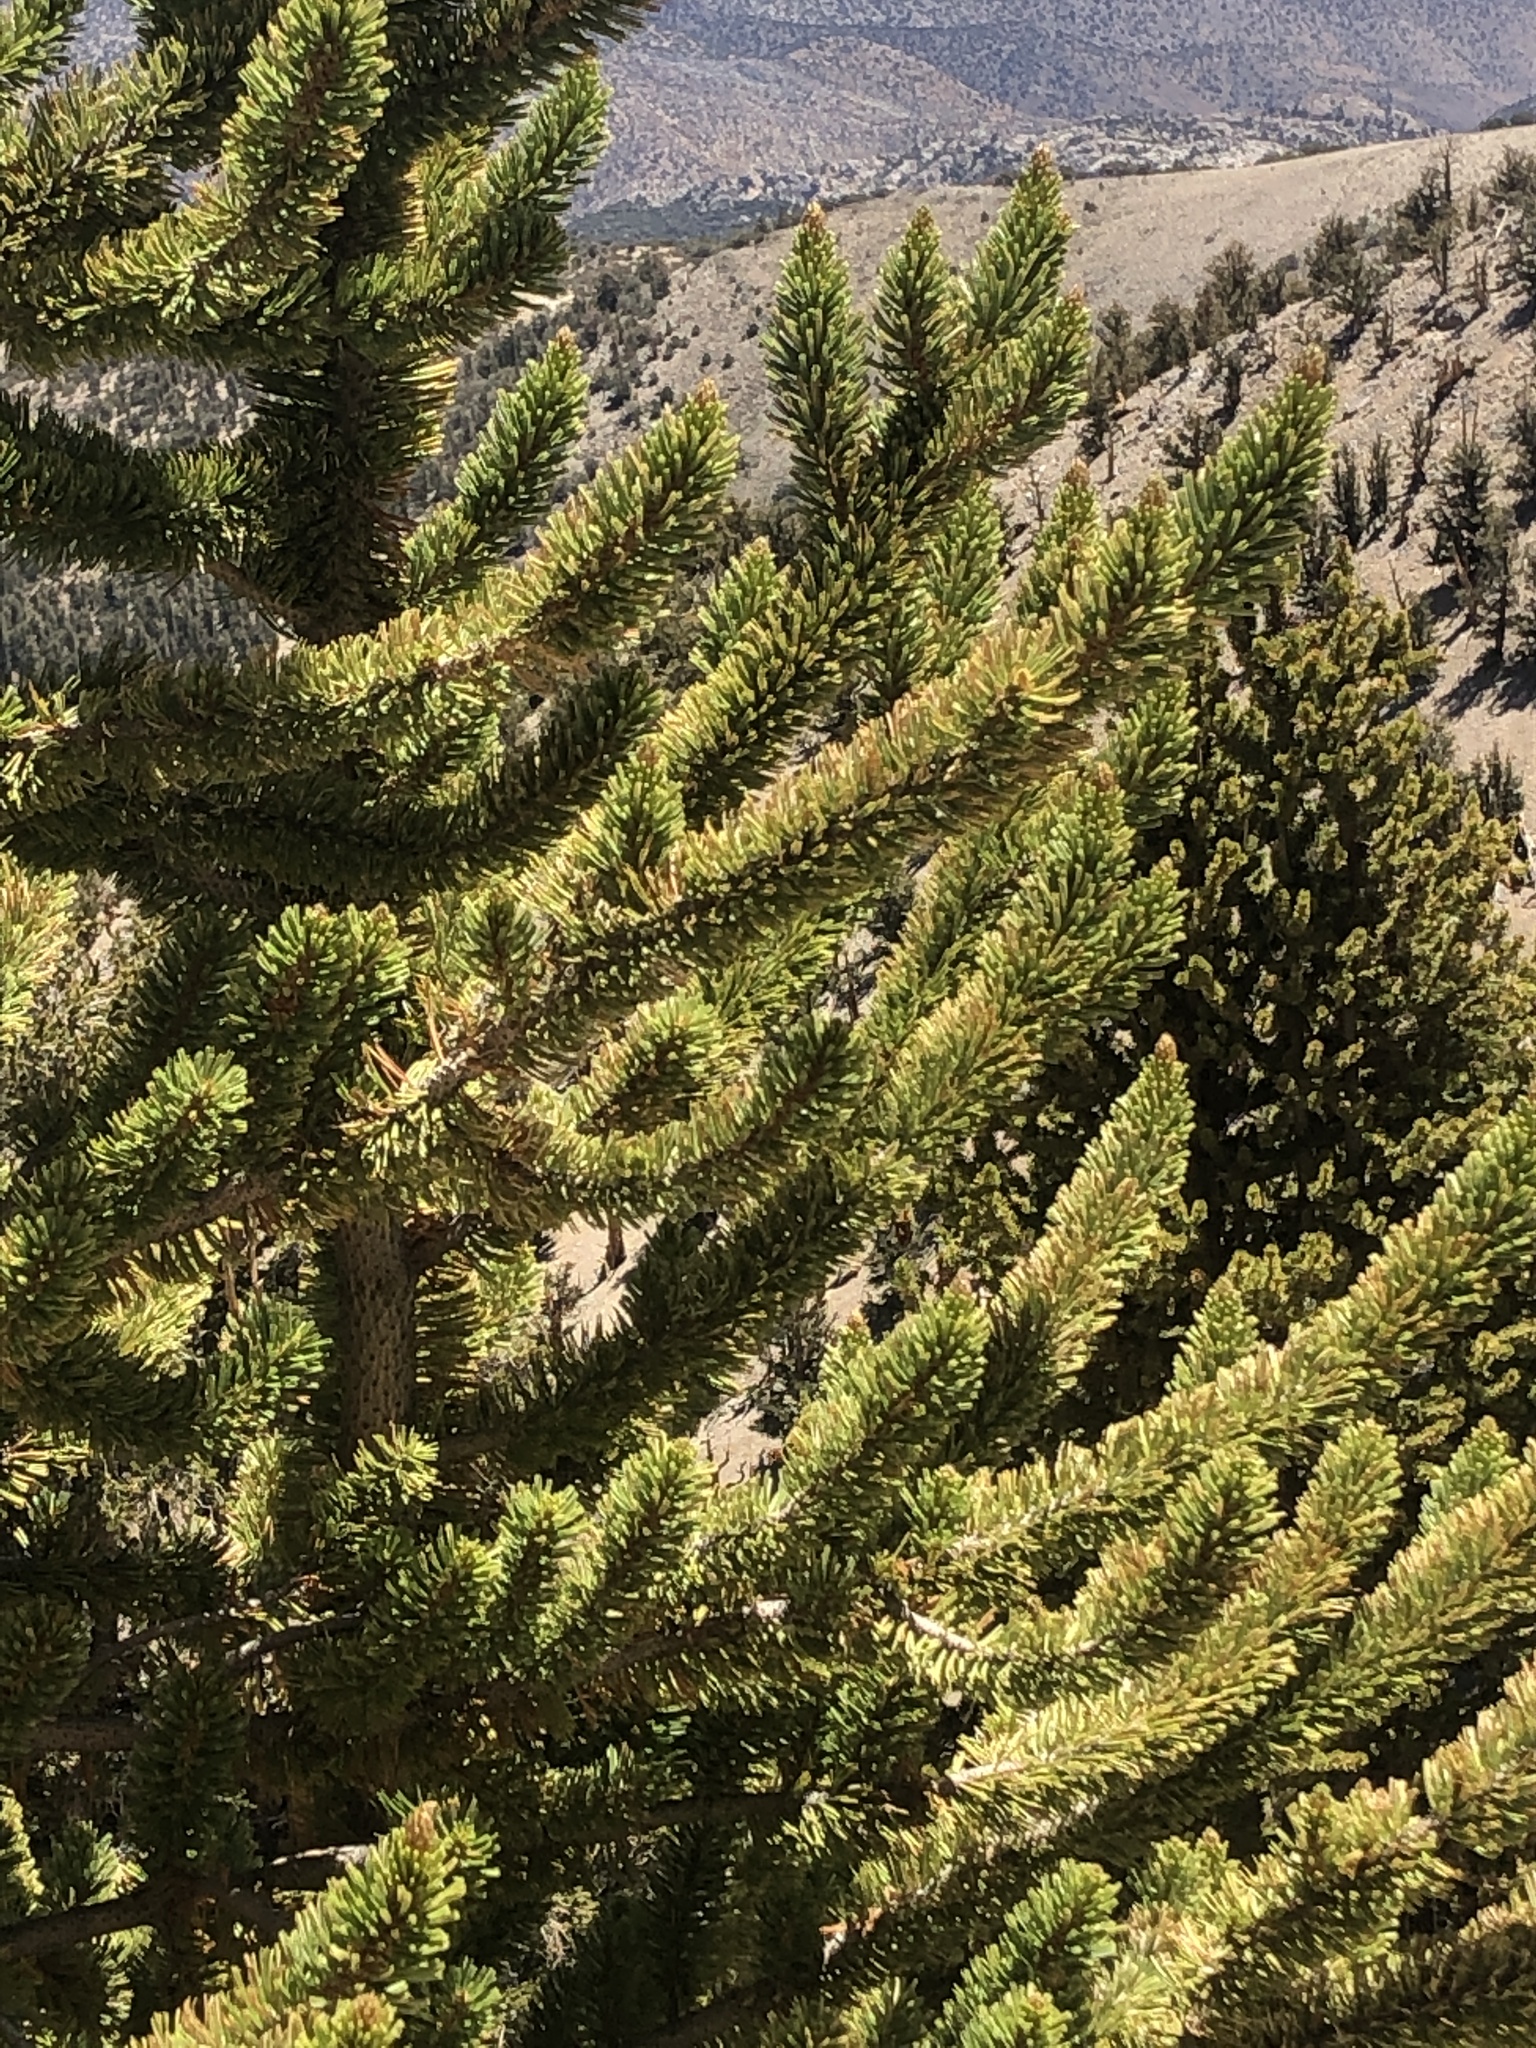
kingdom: Plantae
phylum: Tracheophyta
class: Pinopsida
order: Pinales
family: Pinaceae
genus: Pinus
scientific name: Pinus longaeva
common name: Intermountain bristlecone pine
